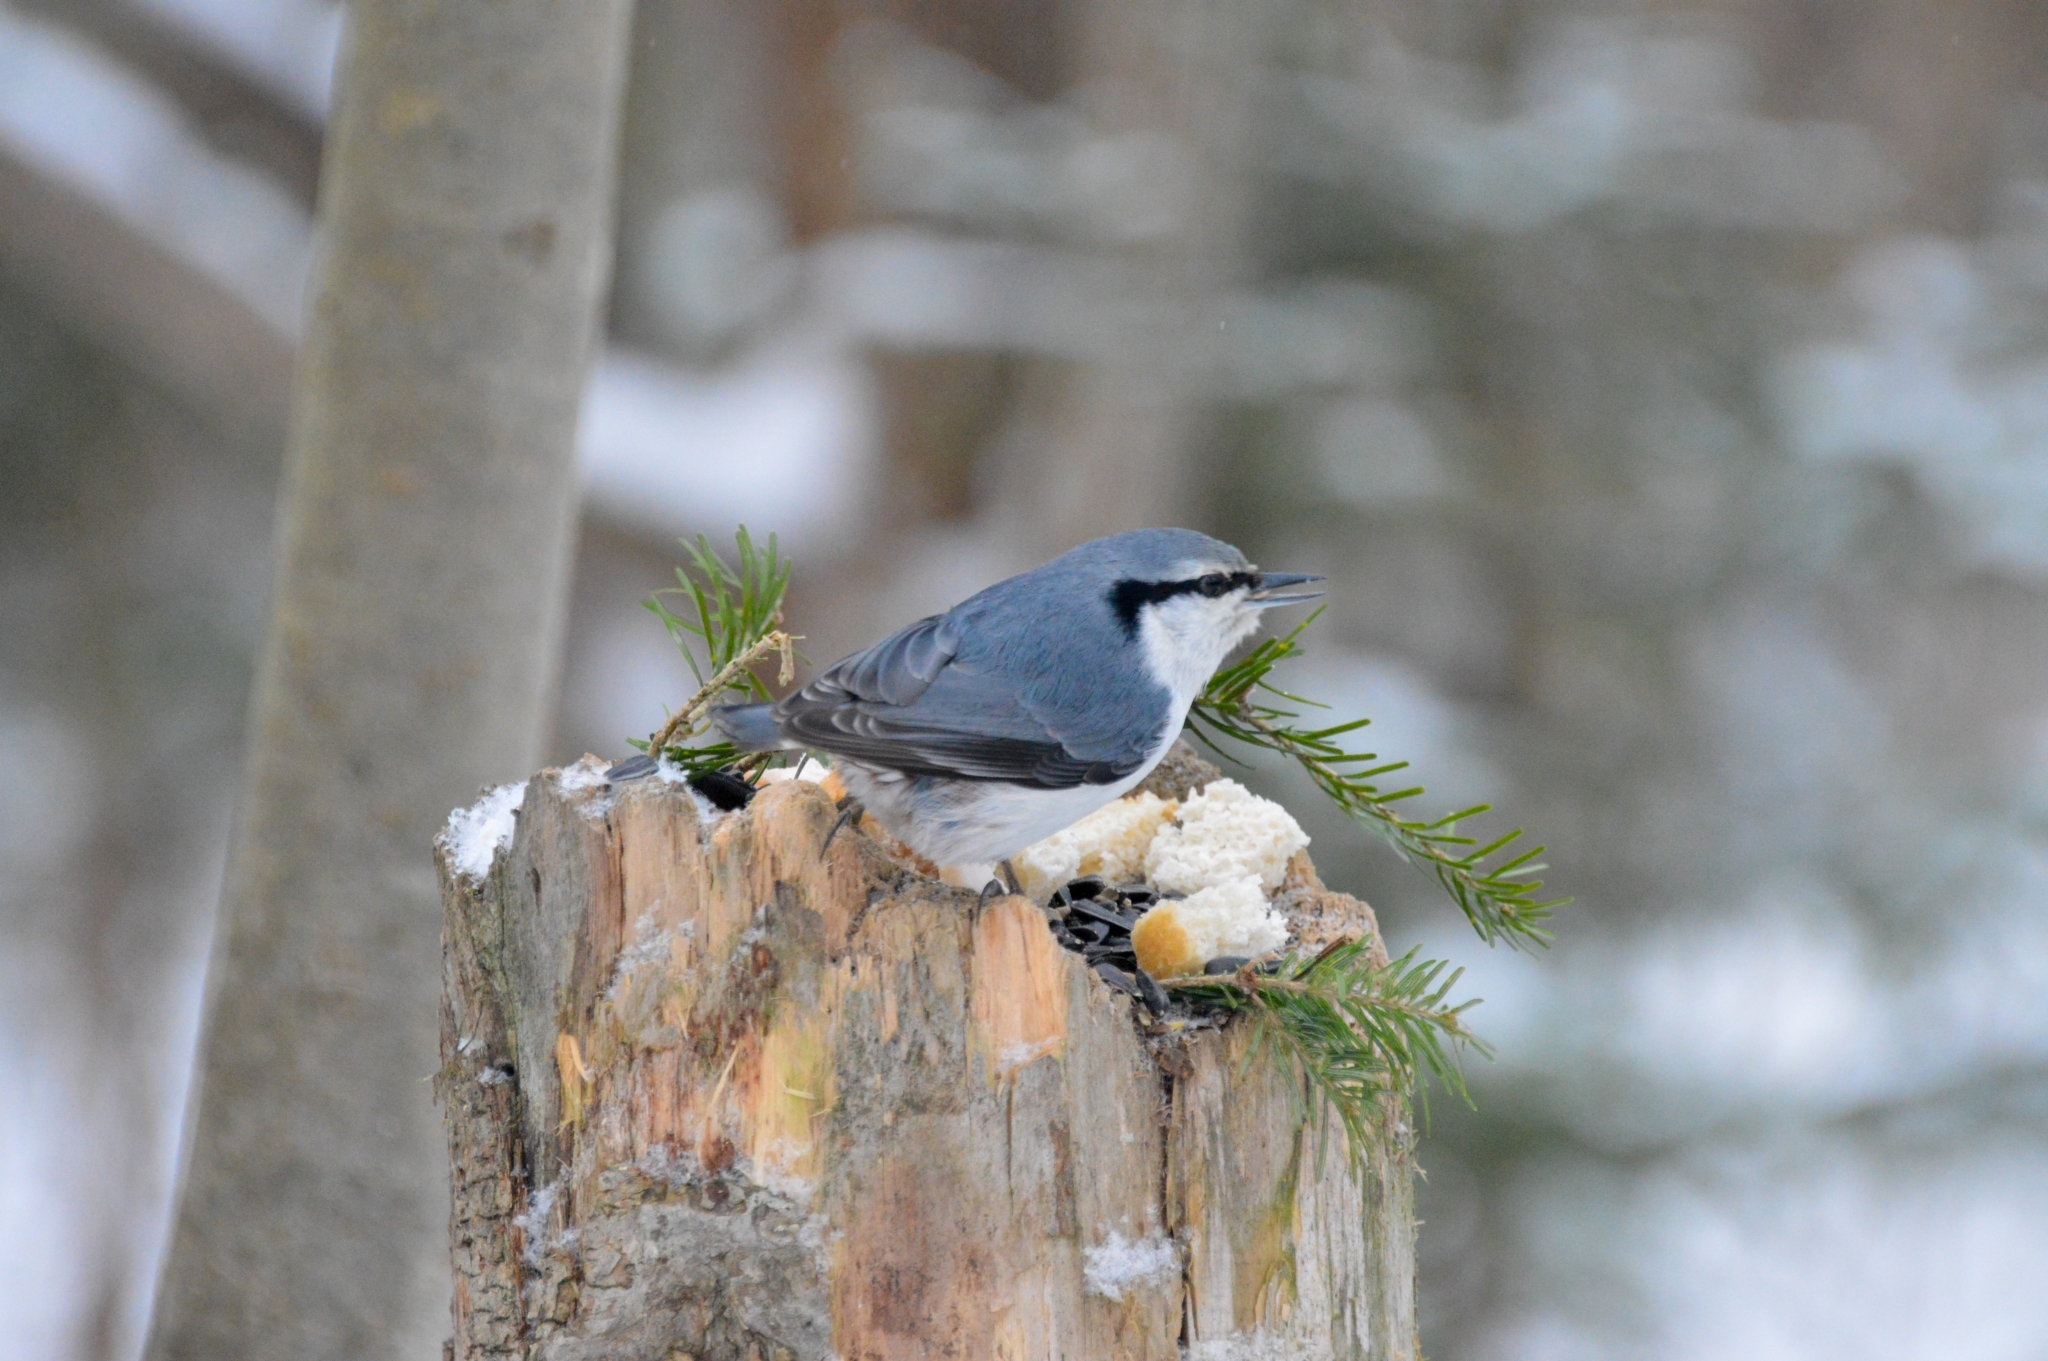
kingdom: Animalia
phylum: Chordata
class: Aves
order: Passeriformes
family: Sittidae
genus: Sitta
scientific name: Sitta europaea
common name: Eurasian nuthatch
